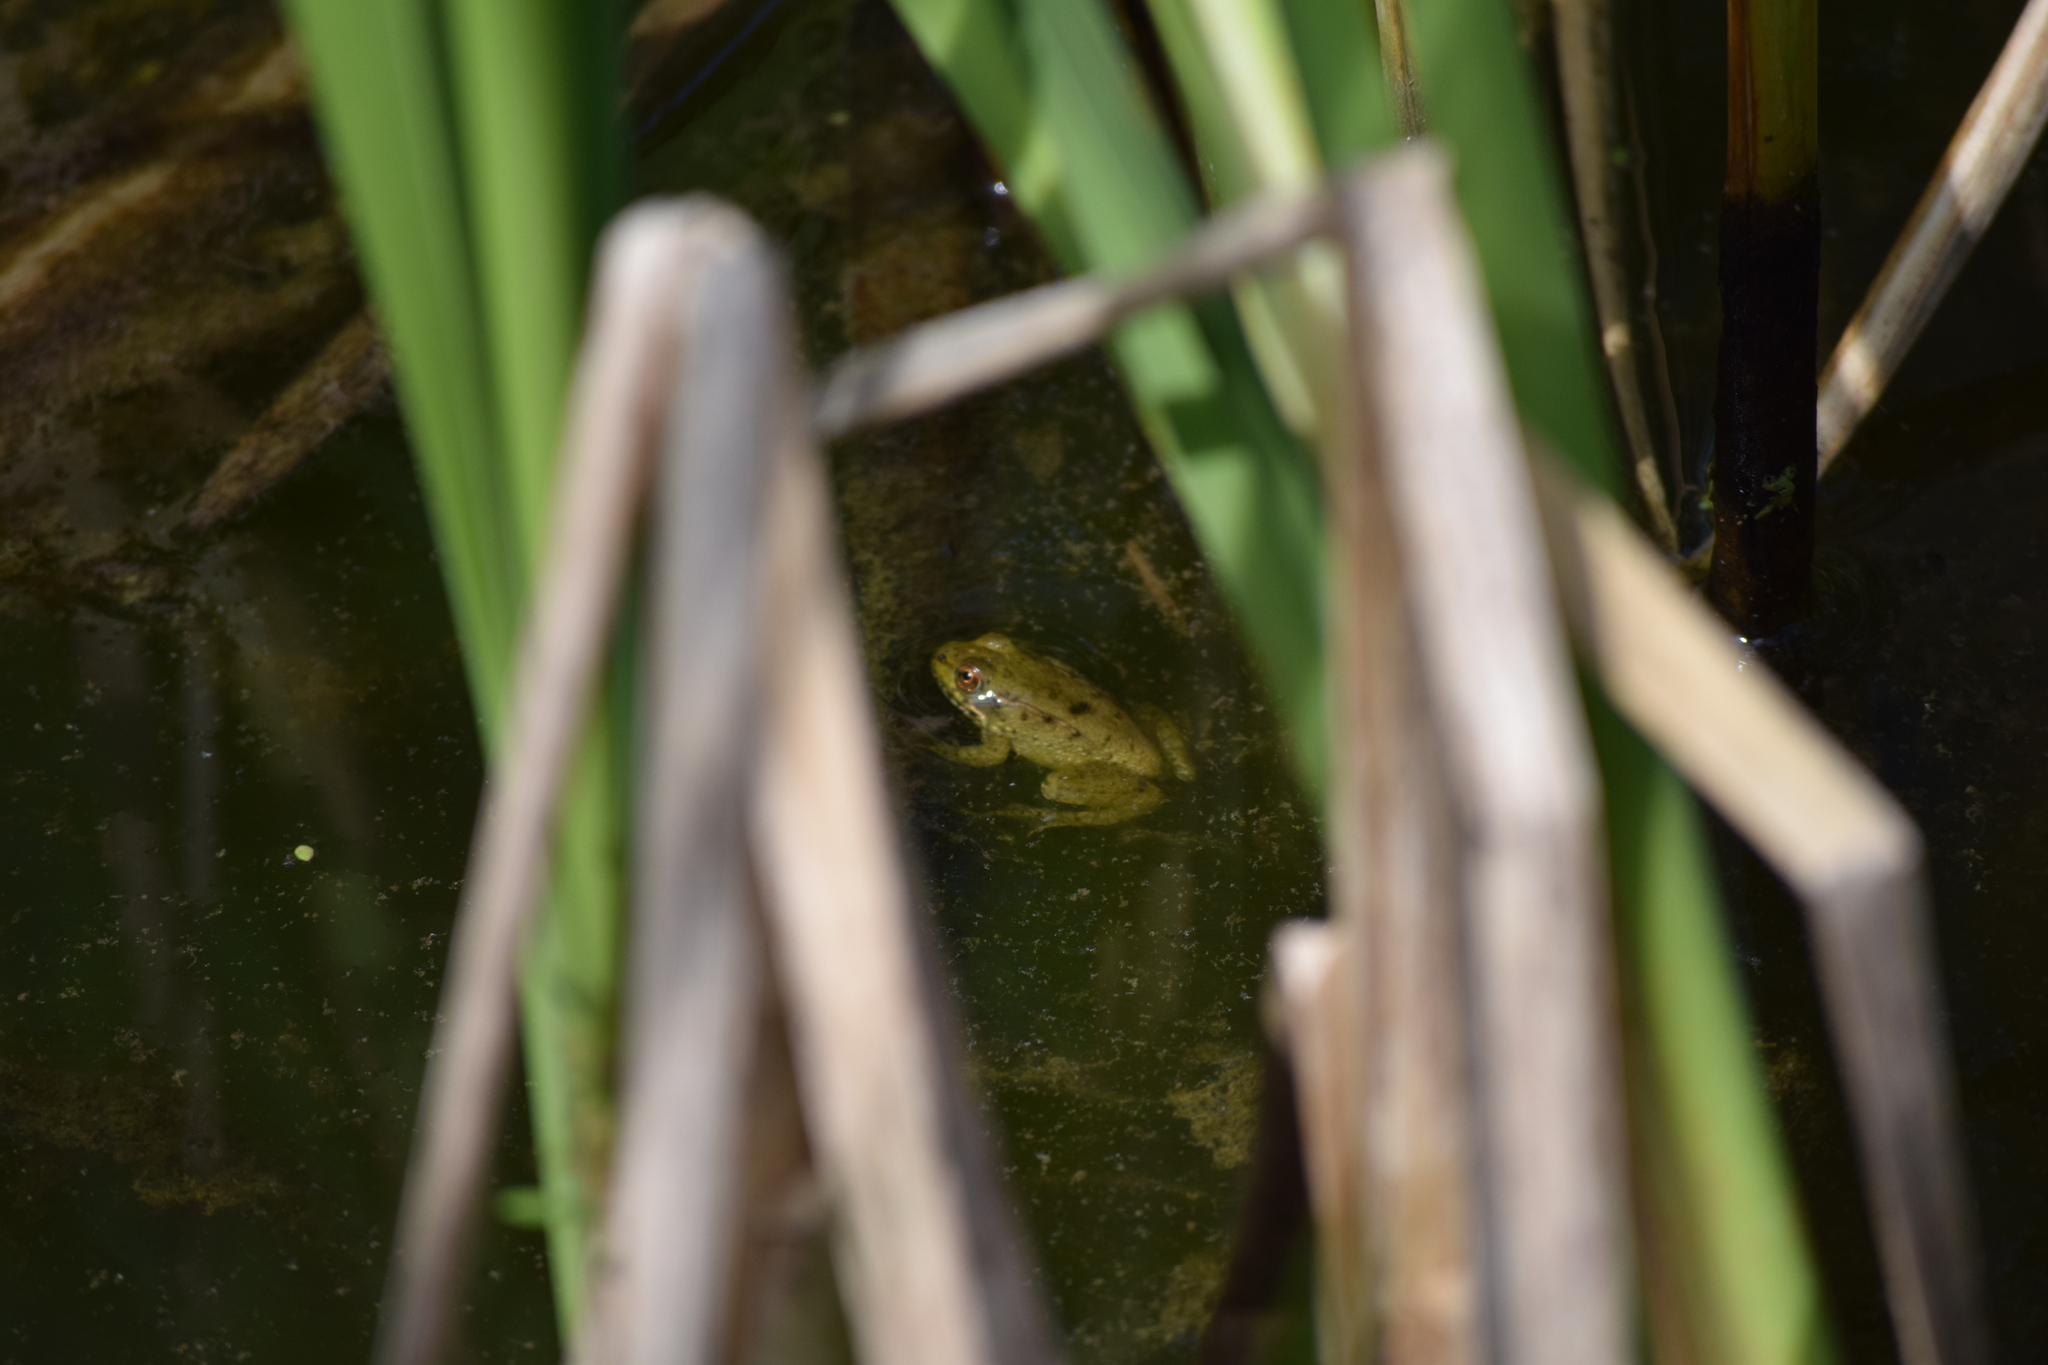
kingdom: Animalia
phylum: Chordata
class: Amphibia
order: Anura
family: Ranidae
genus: Lithobates
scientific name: Lithobates clamitans
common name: Green frog
